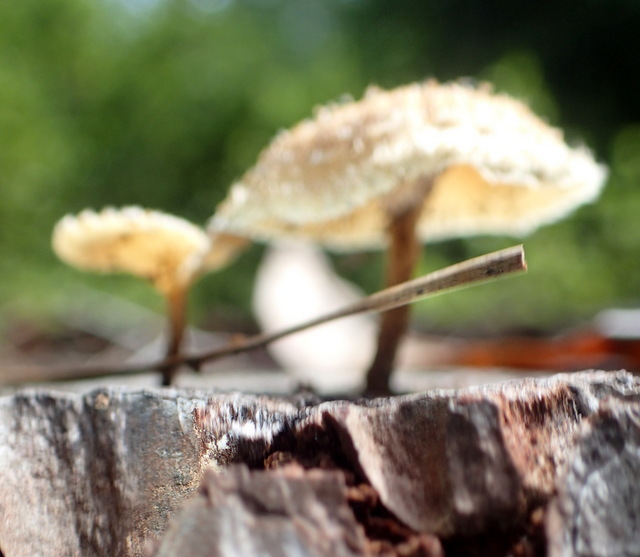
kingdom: Fungi
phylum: Basidiomycota
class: Agaricomycetes
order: Polyporales
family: Polyporaceae
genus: Lentinus
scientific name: Lentinus crinitus
